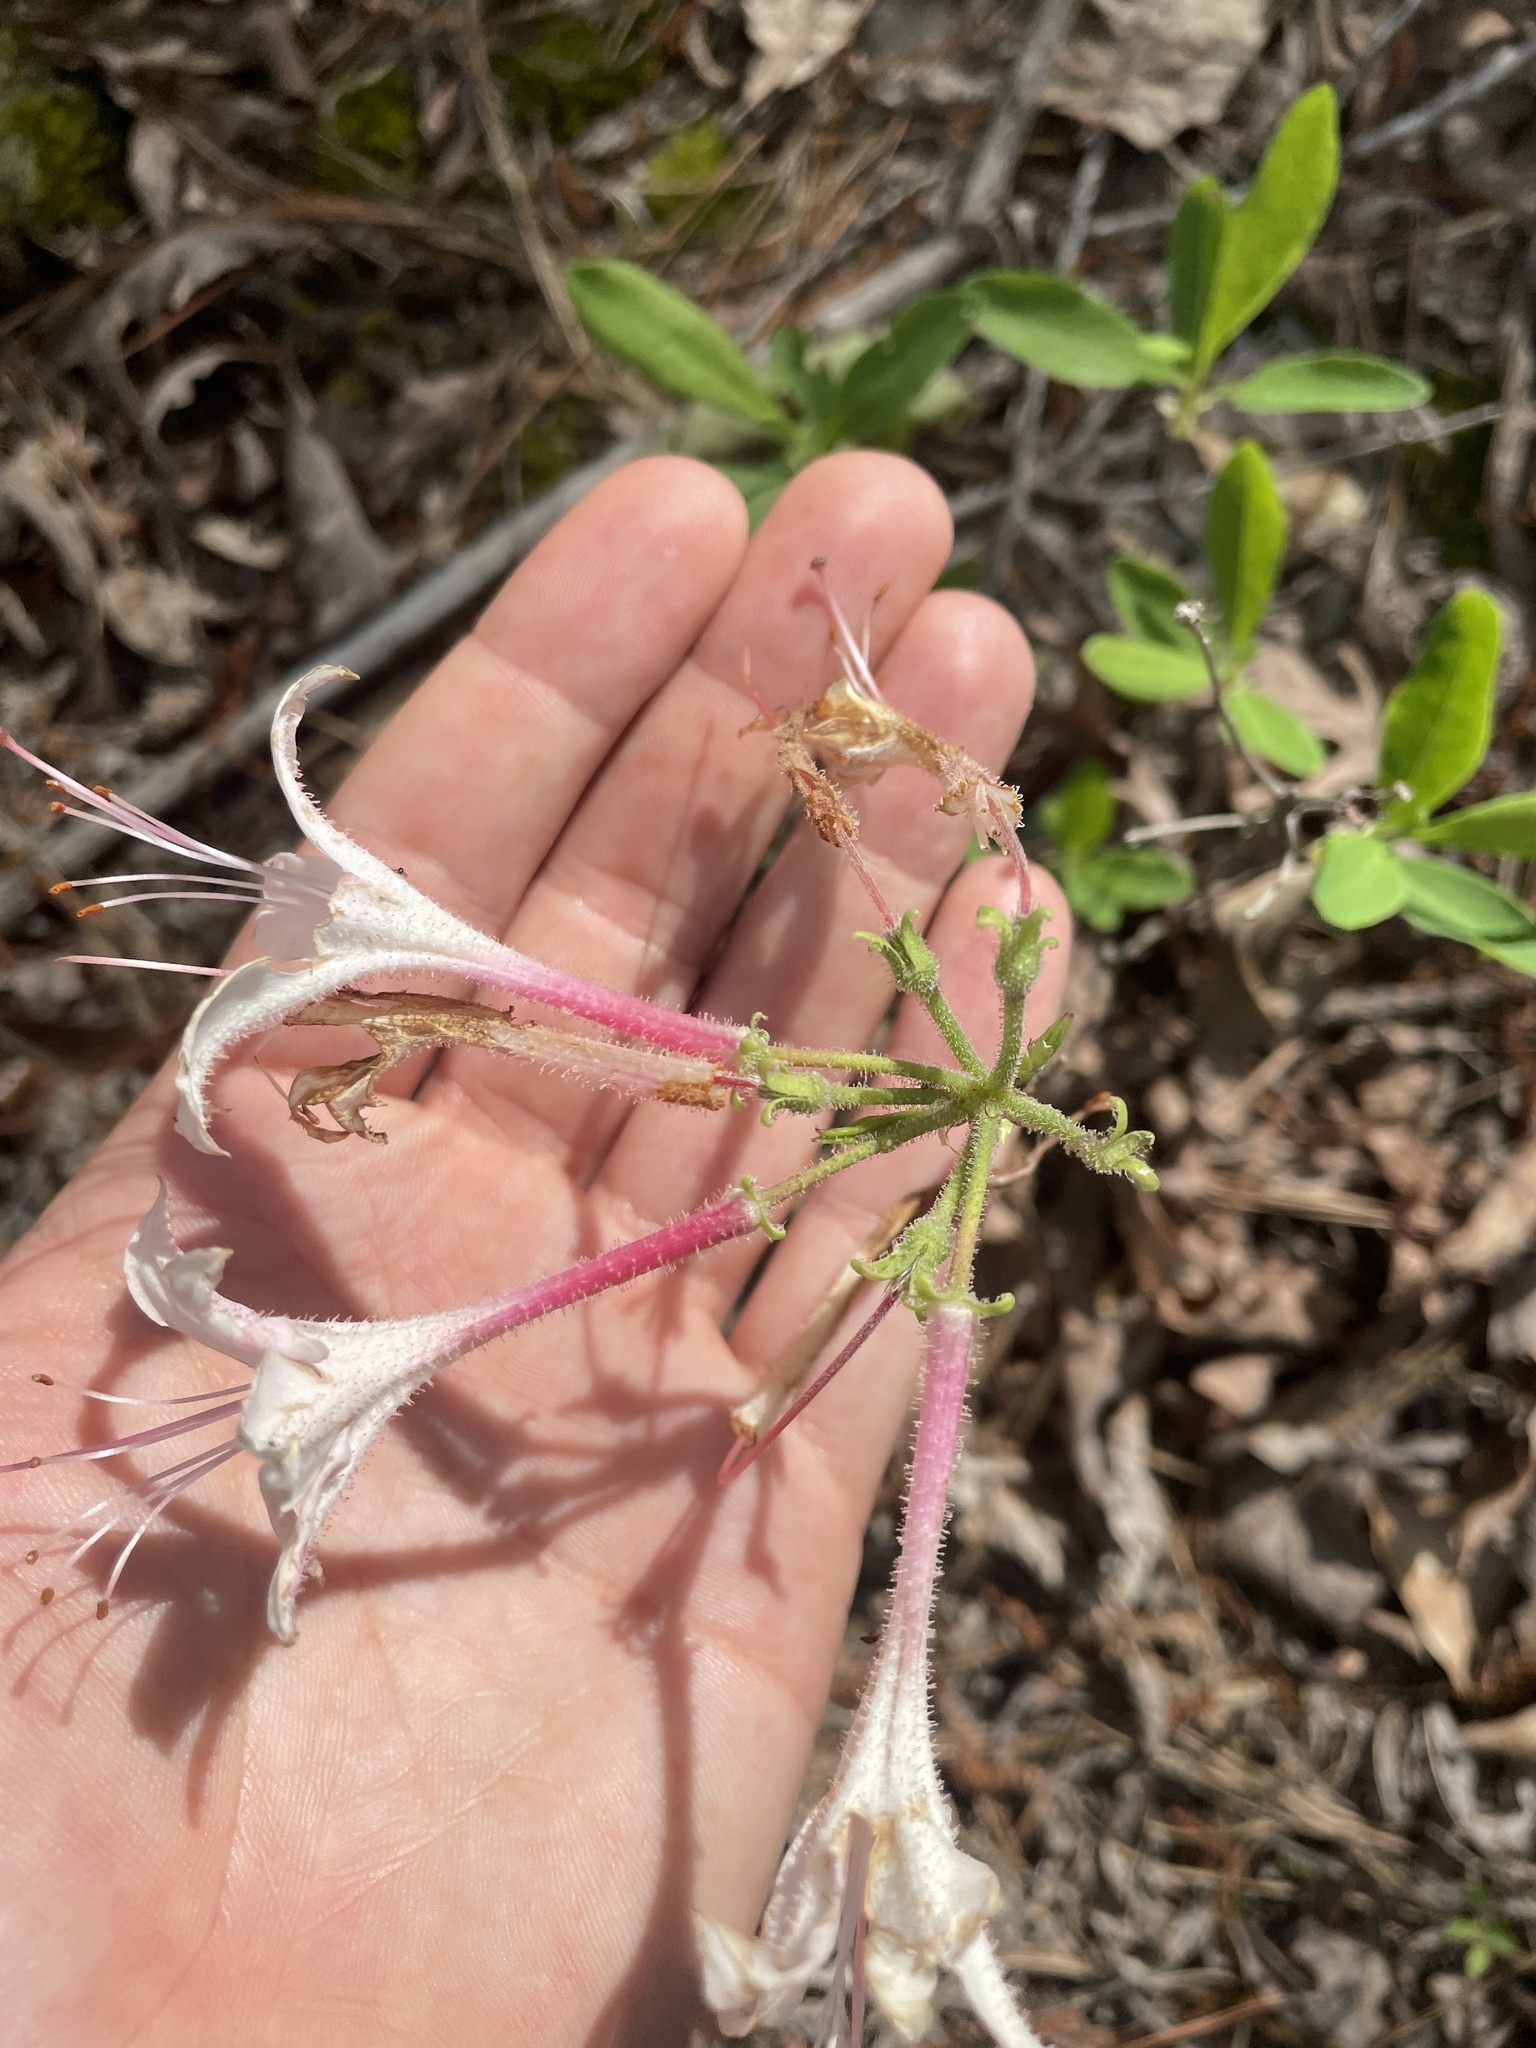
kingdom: Plantae
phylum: Tracheophyta
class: Magnoliopsida
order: Ericales
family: Ericaceae
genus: Rhododendron
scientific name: Rhododendron atlanticum
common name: Dwarf azalea
